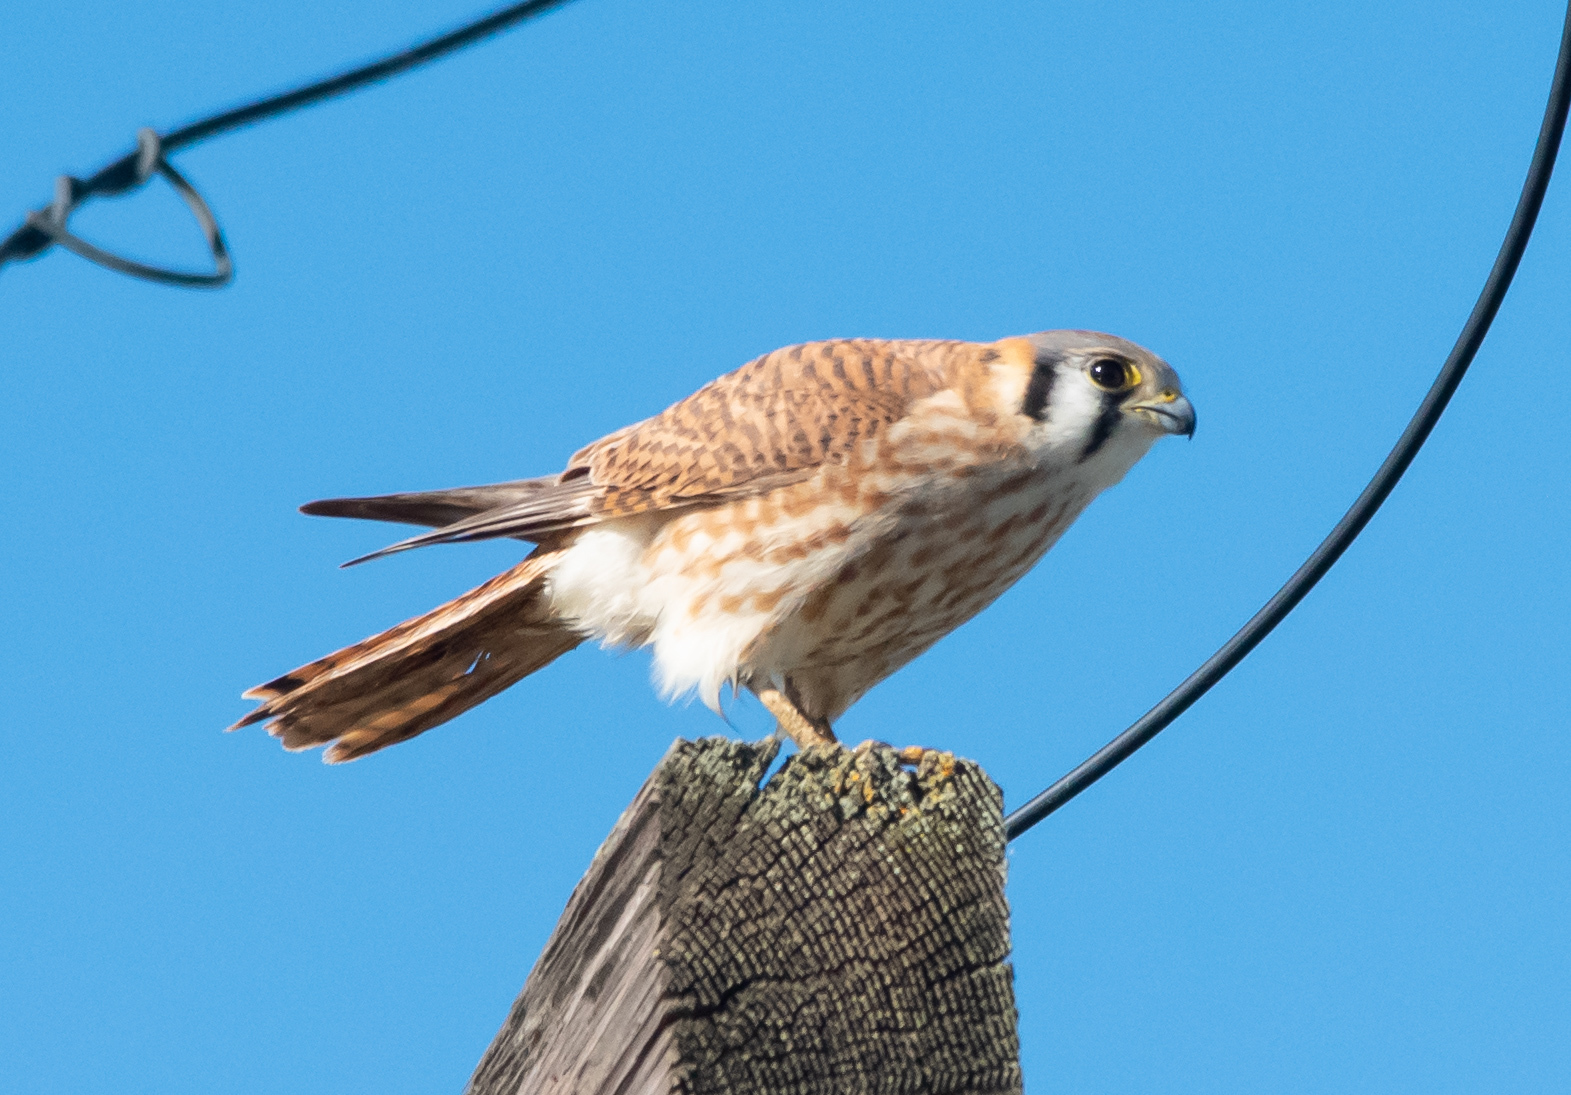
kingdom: Animalia
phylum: Chordata
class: Aves
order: Falconiformes
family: Falconidae
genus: Falco
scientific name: Falco sparverius
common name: American kestrel
